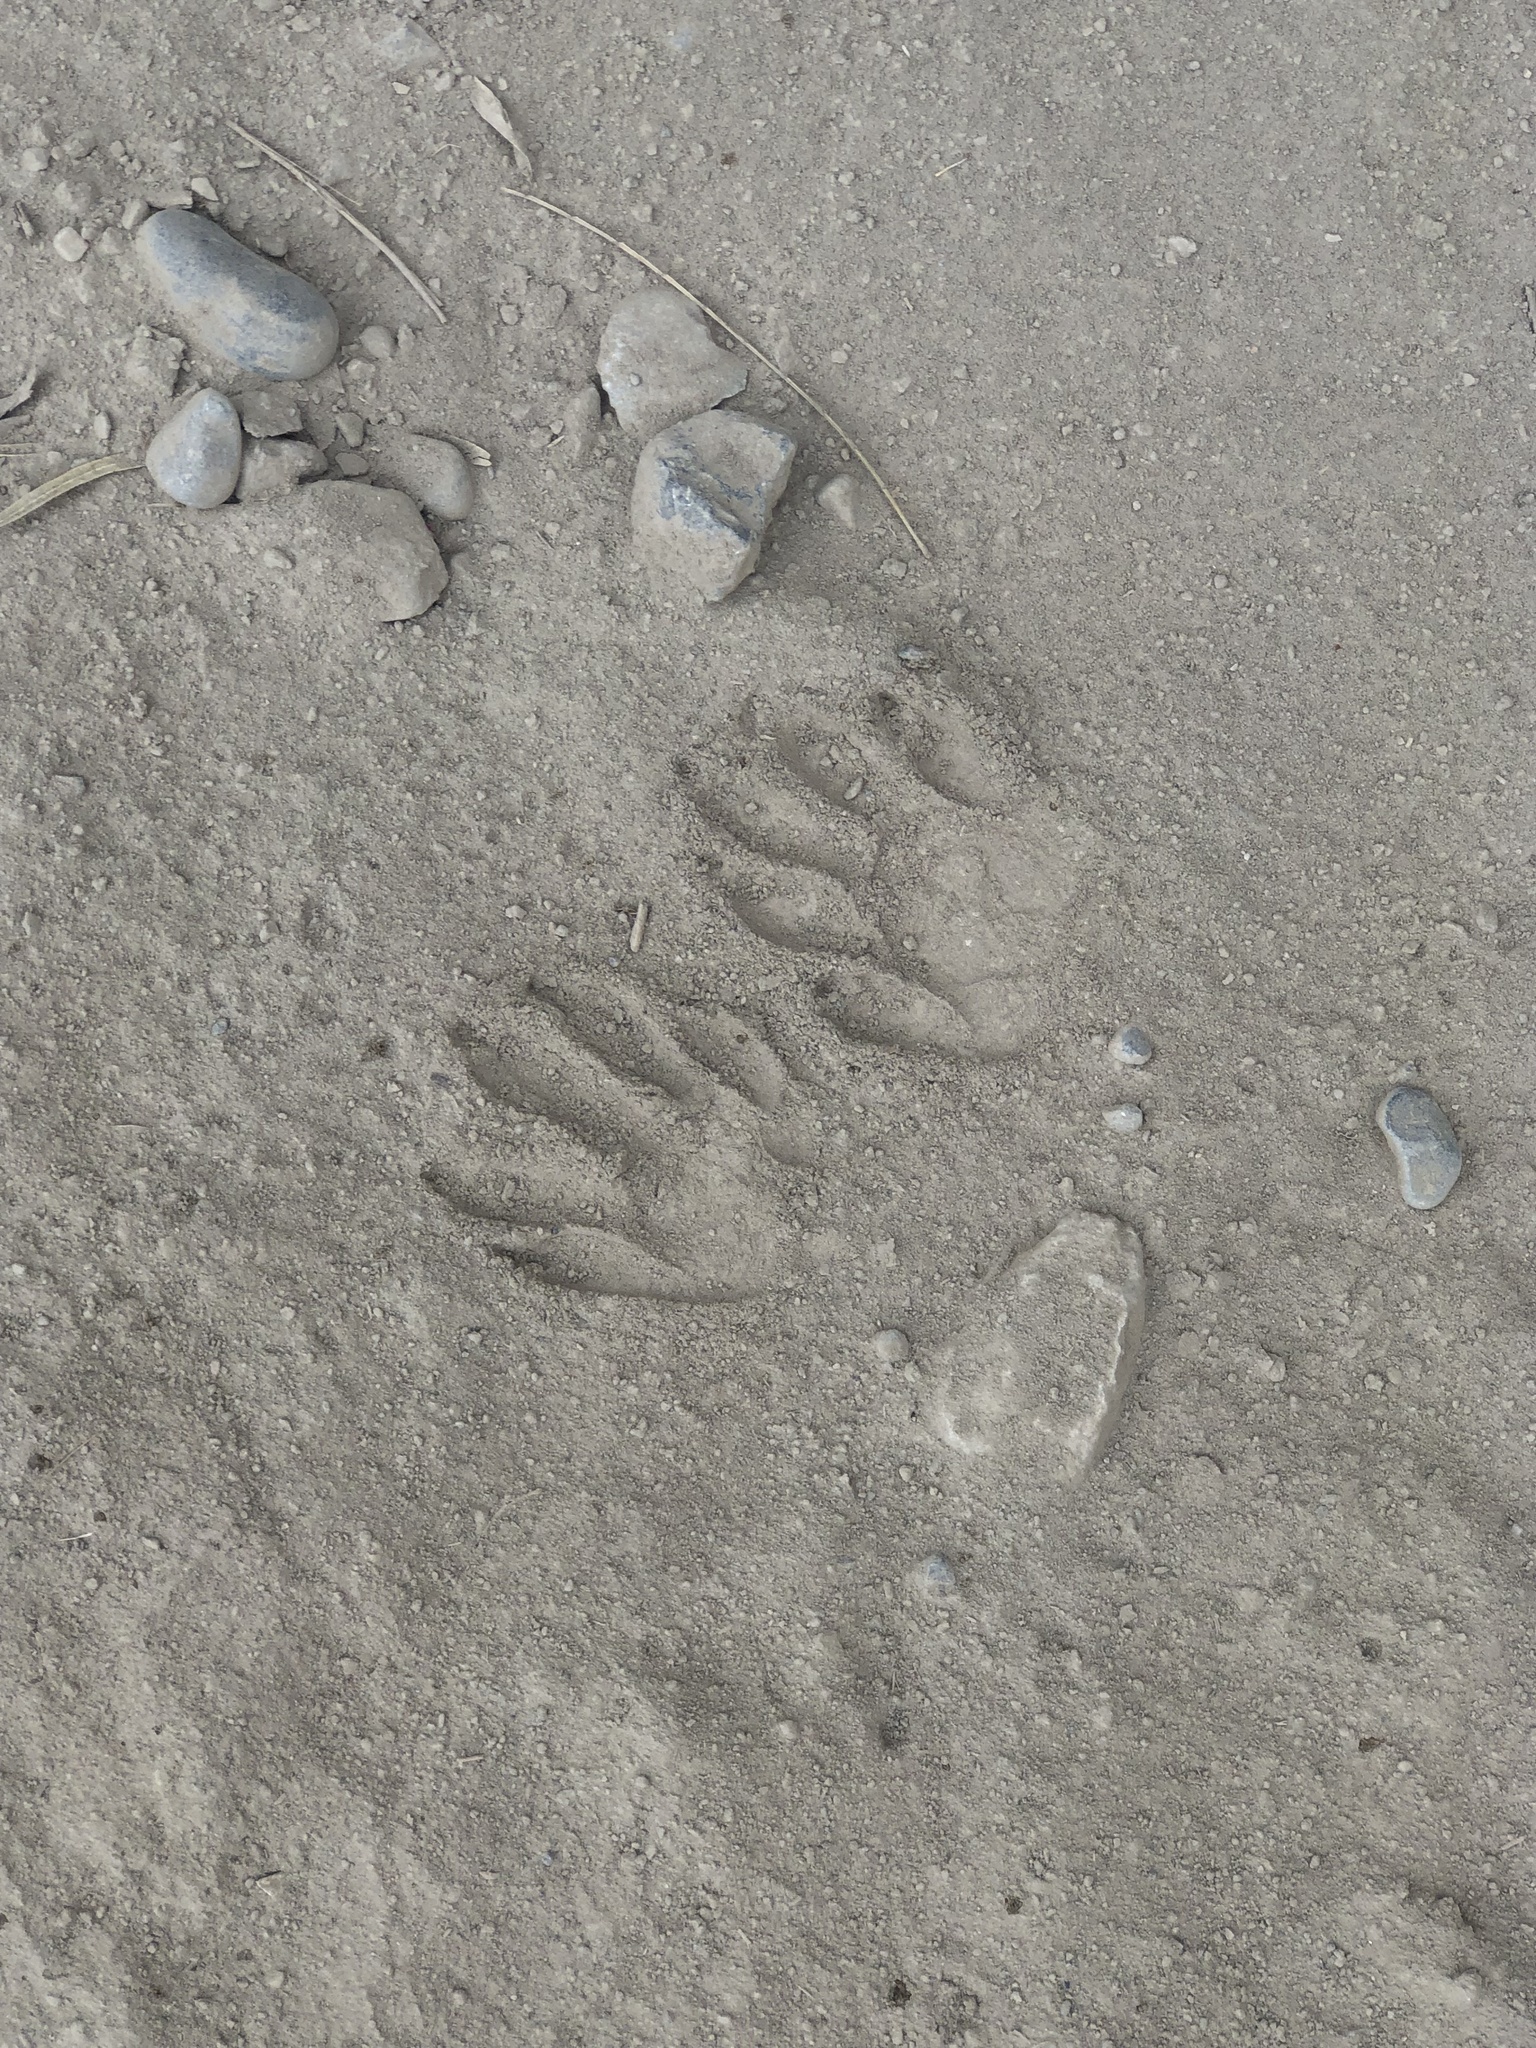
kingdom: Animalia
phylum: Chordata
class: Mammalia
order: Carnivora
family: Procyonidae
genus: Procyon
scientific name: Procyon lotor
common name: Raccoon
